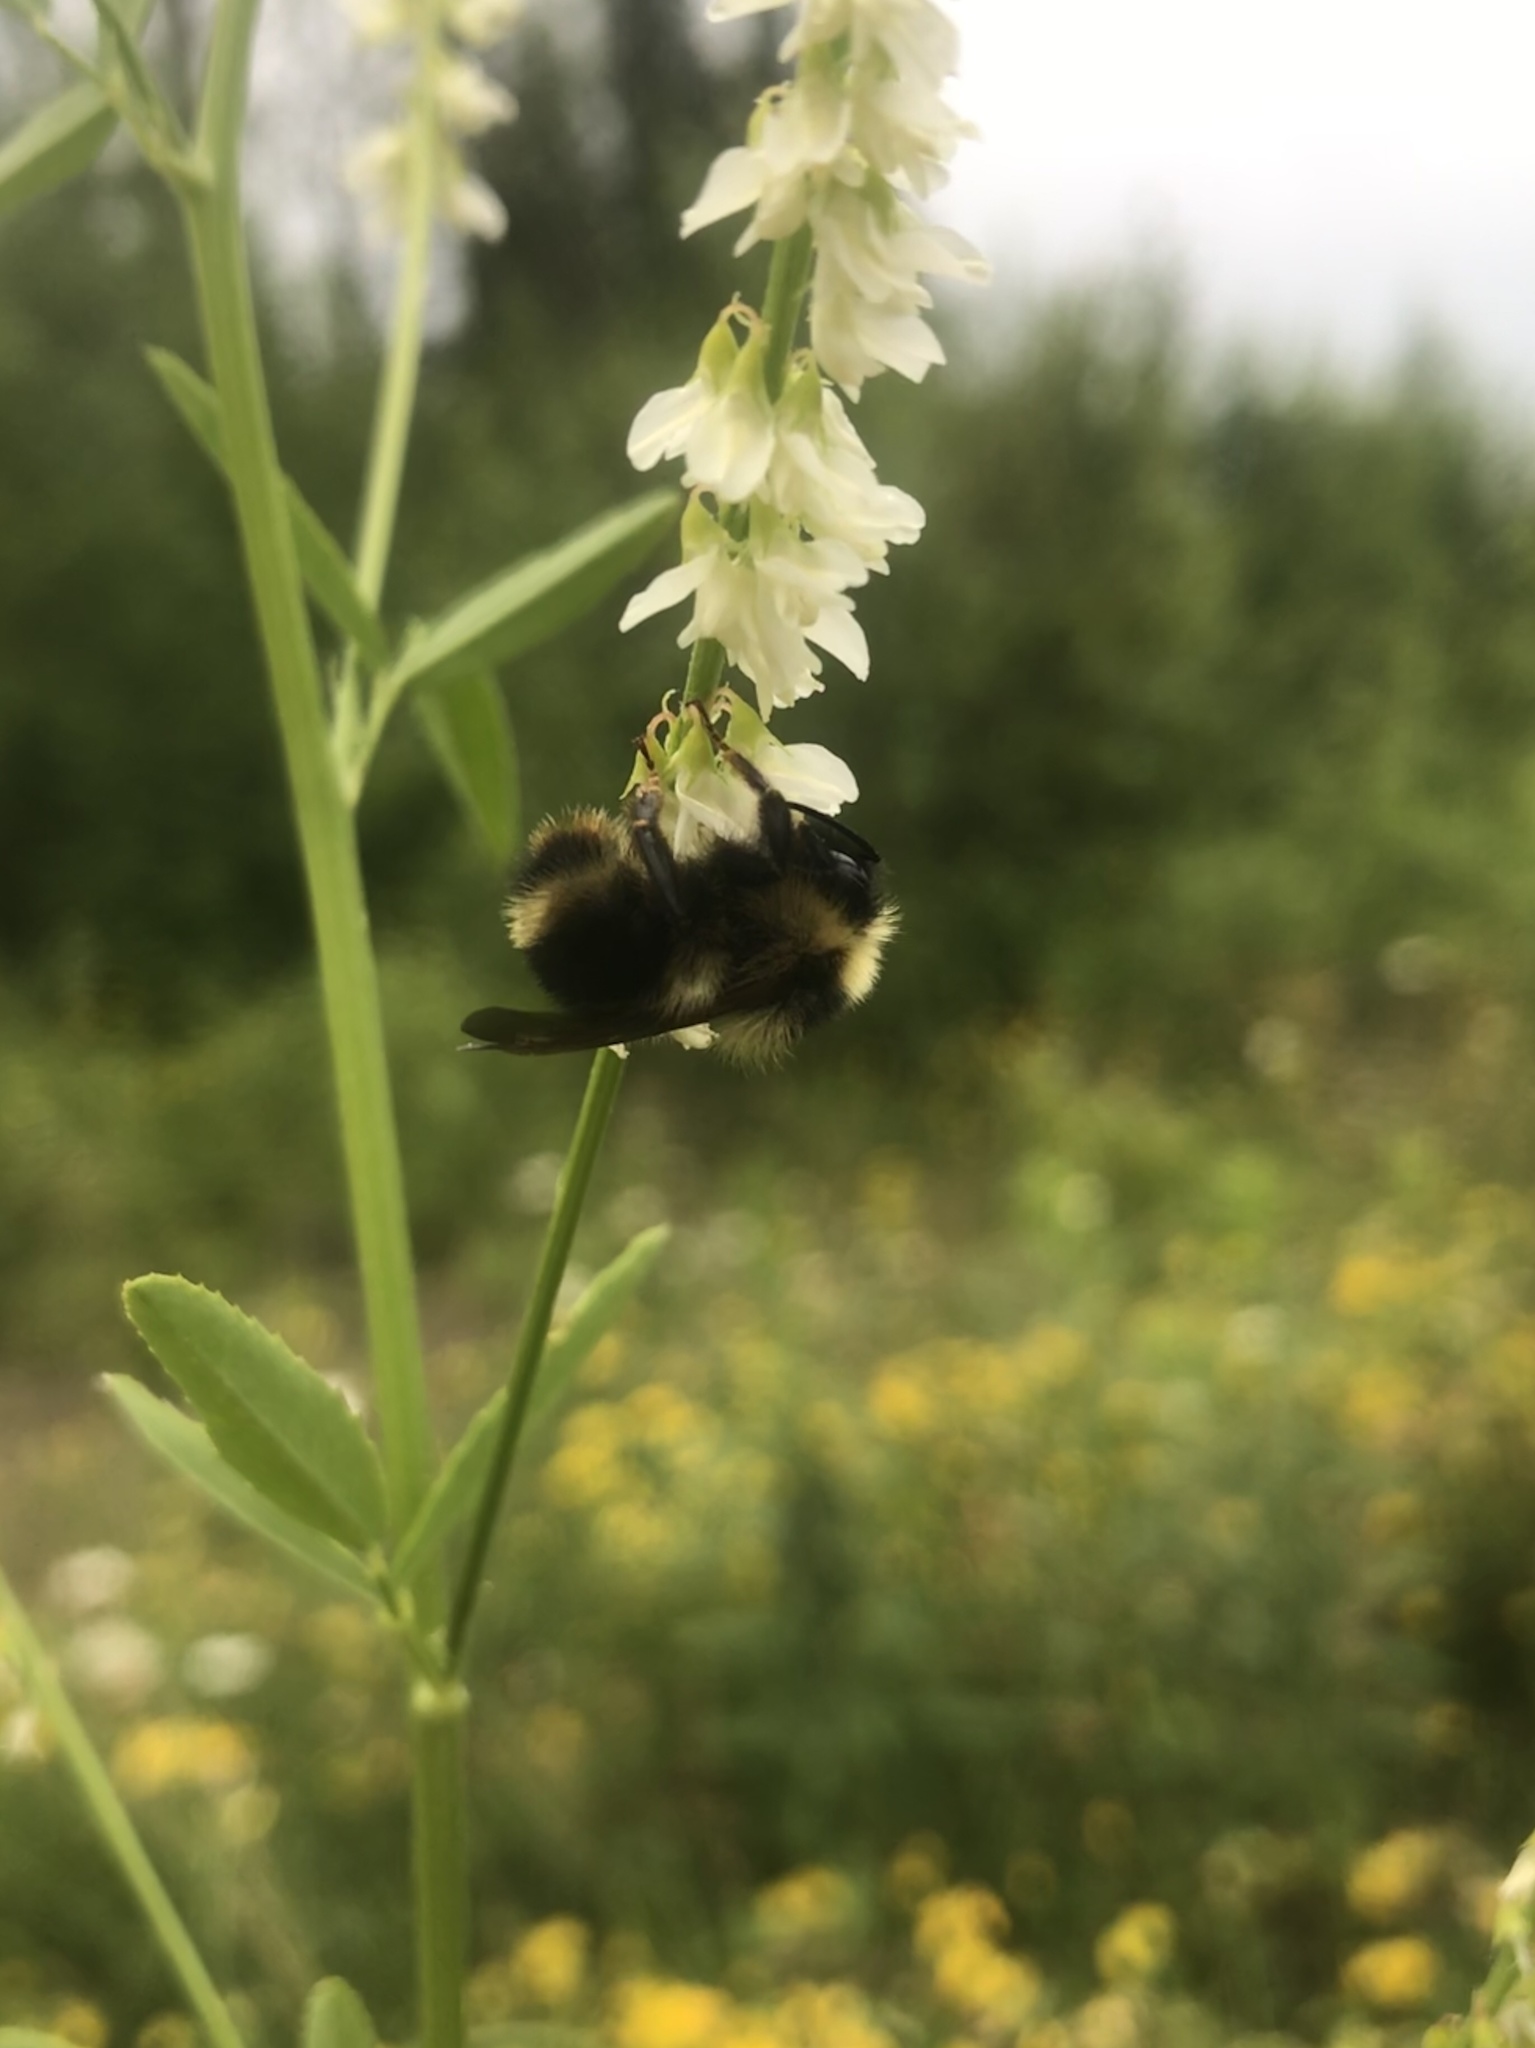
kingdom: Animalia
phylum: Arthropoda
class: Insecta
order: Hymenoptera
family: Apidae
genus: Bombus
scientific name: Bombus flavidus
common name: Fernald cuckoo bumble bee
